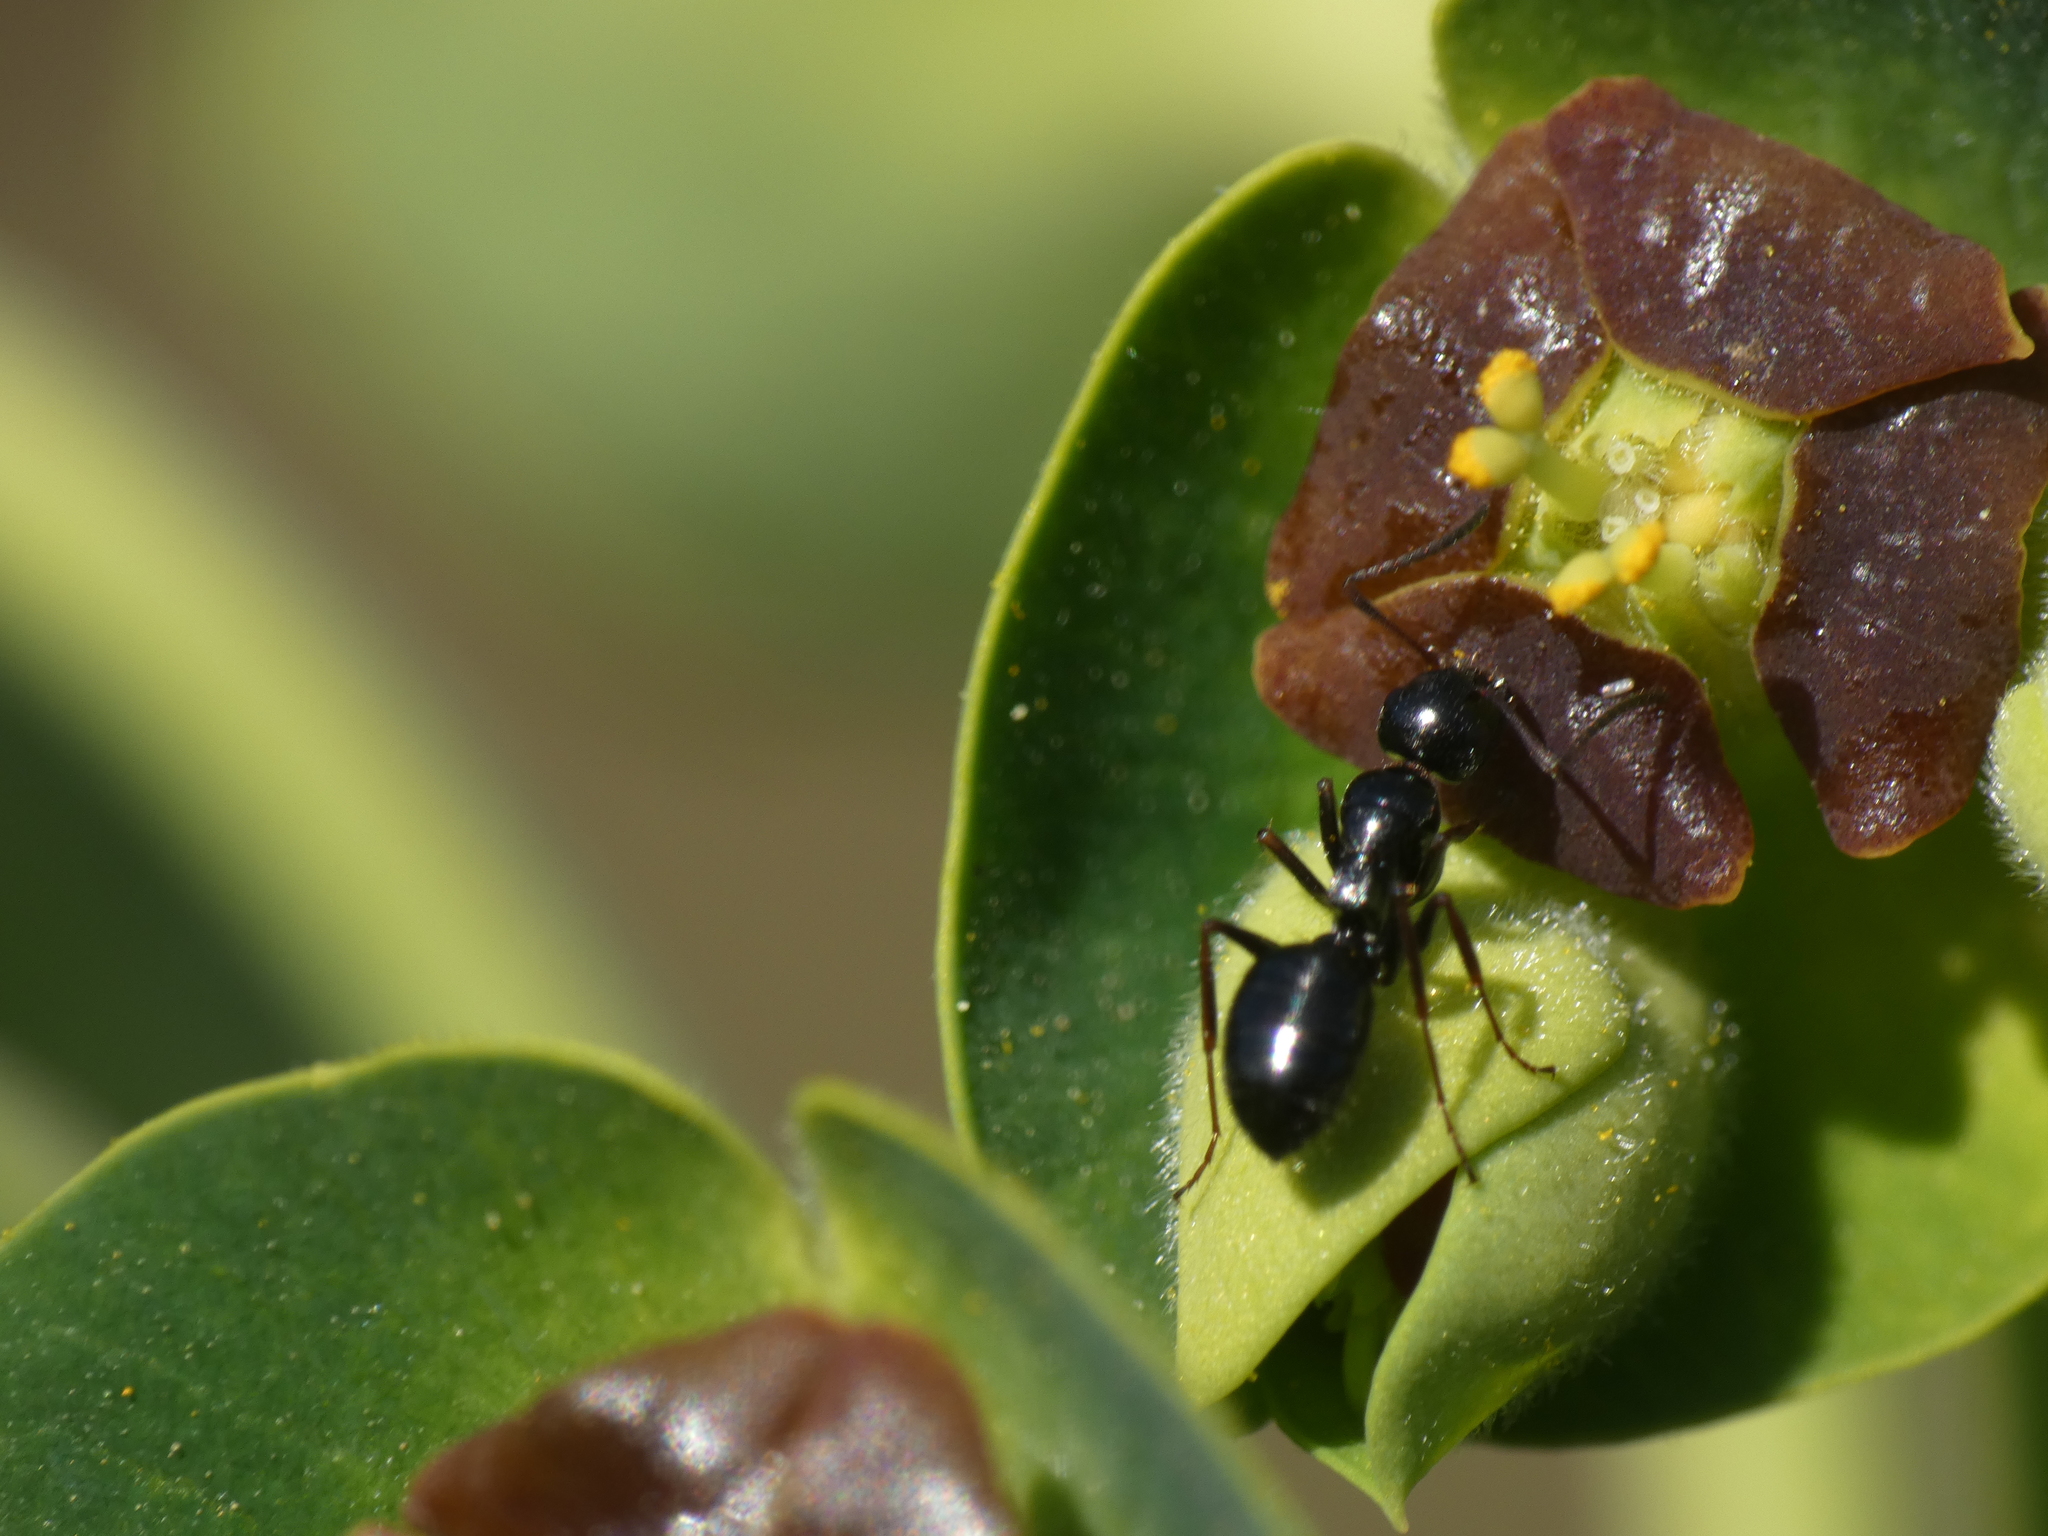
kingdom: Animalia
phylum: Arthropoda
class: Insecta
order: Hymenoptera
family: Formicidae
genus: Camponotus
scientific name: Camponotus piceus
